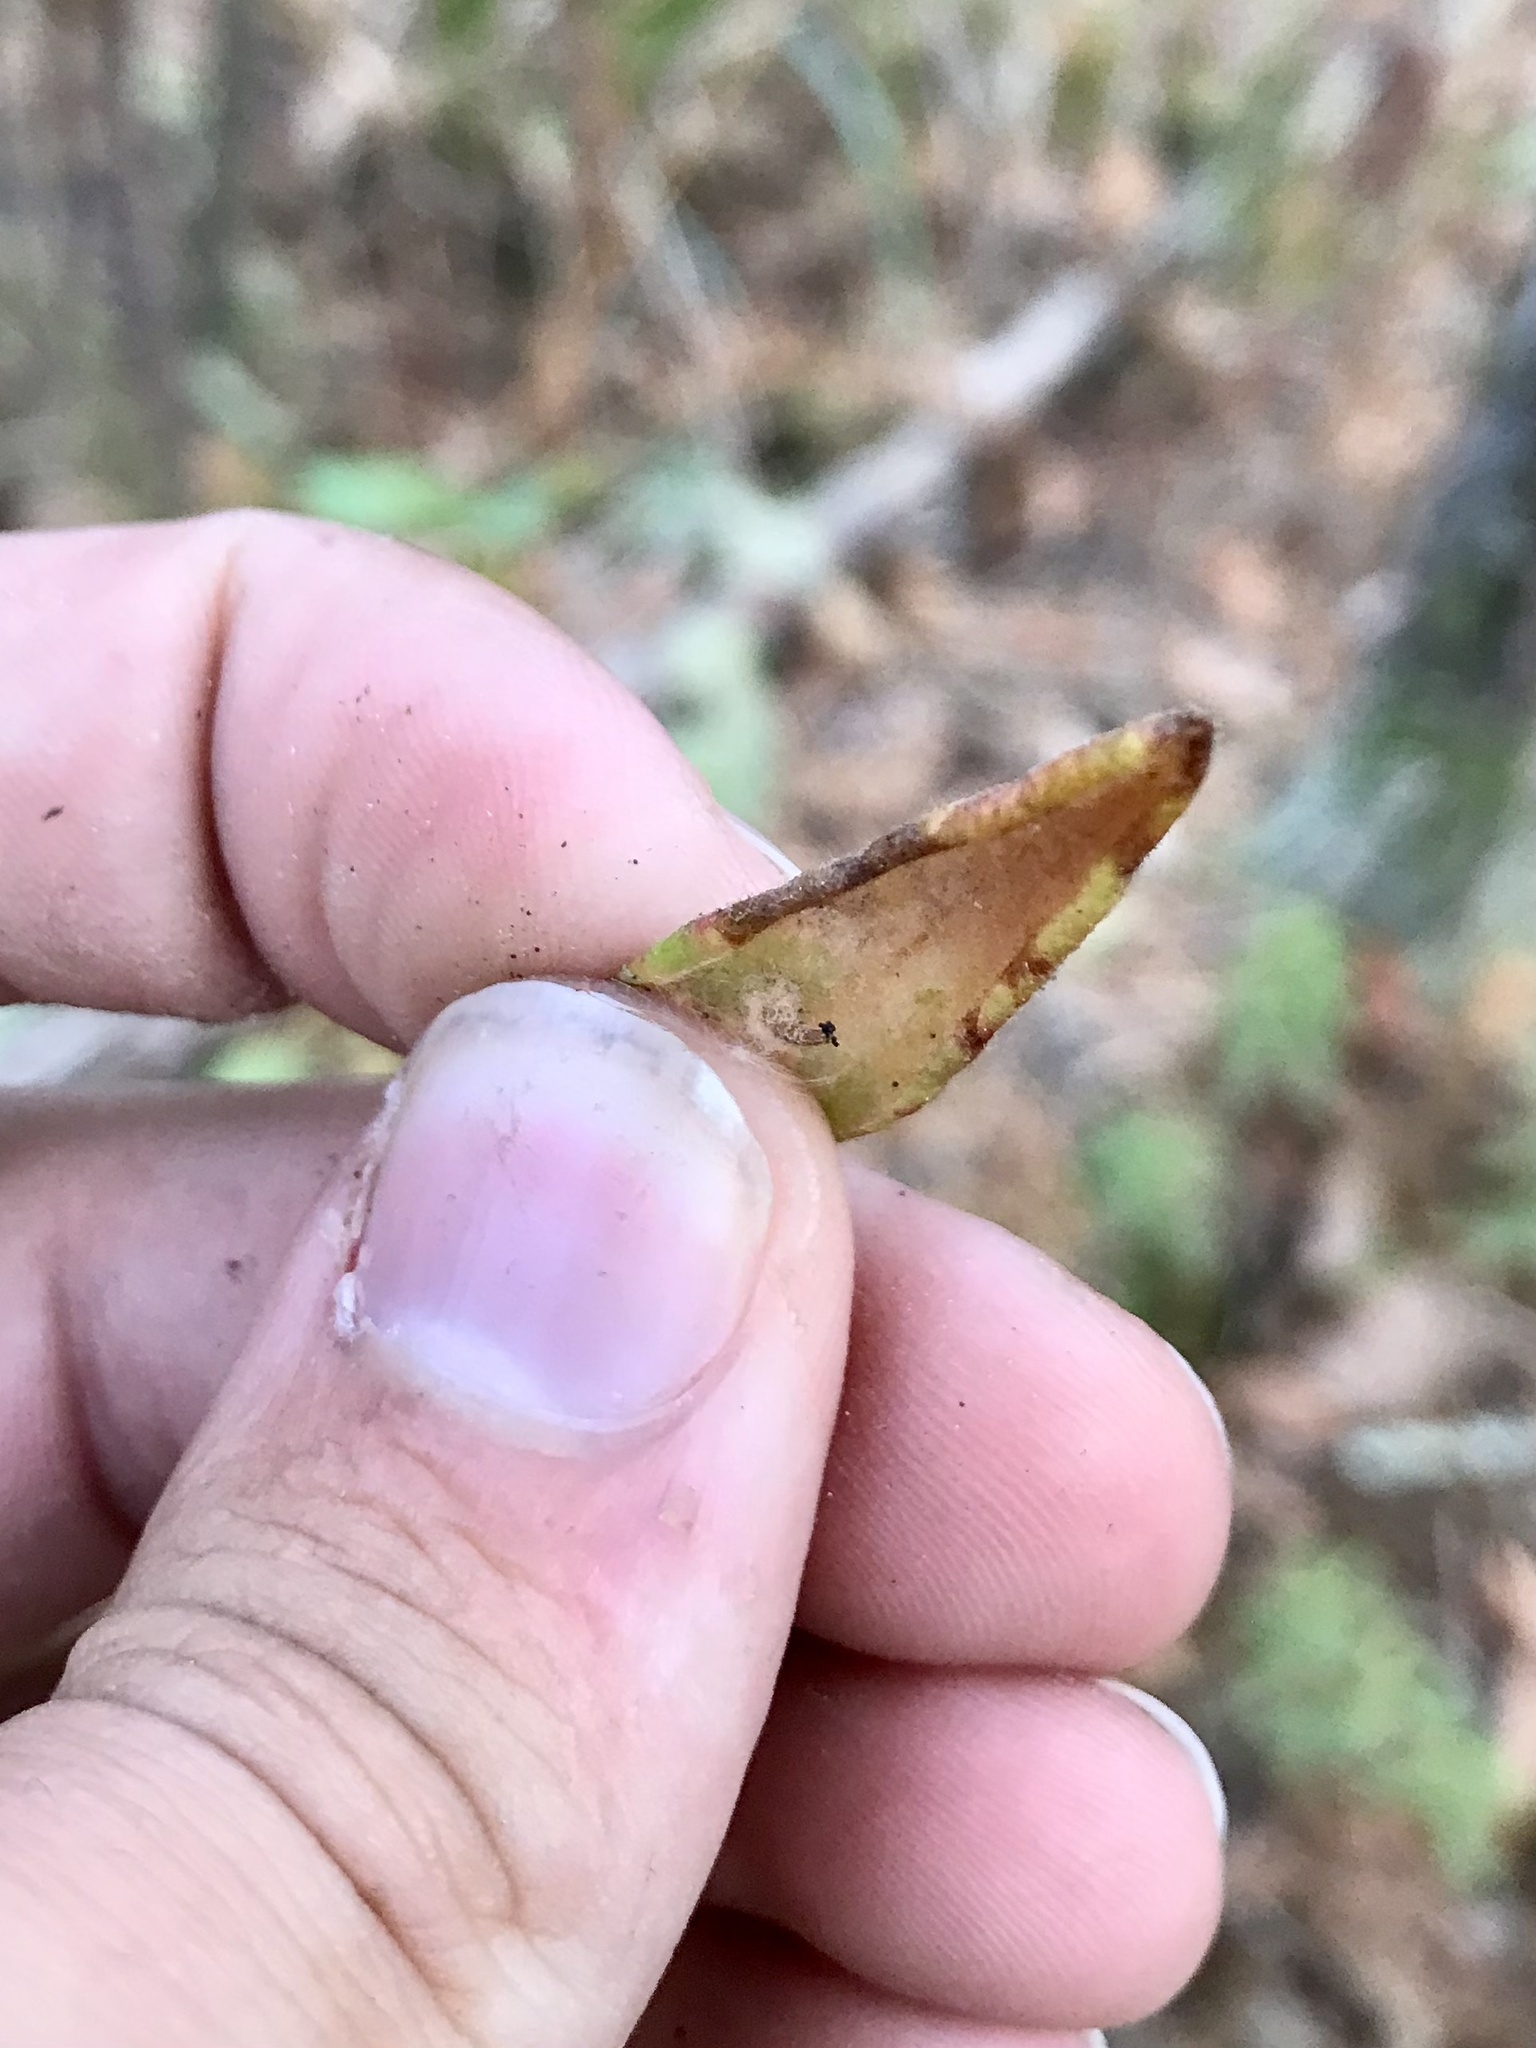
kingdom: Animalia
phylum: Arthropoda
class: Insecta
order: Lepidoptera
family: Coleophoridae
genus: Coleophora
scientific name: Coleophora ledi
